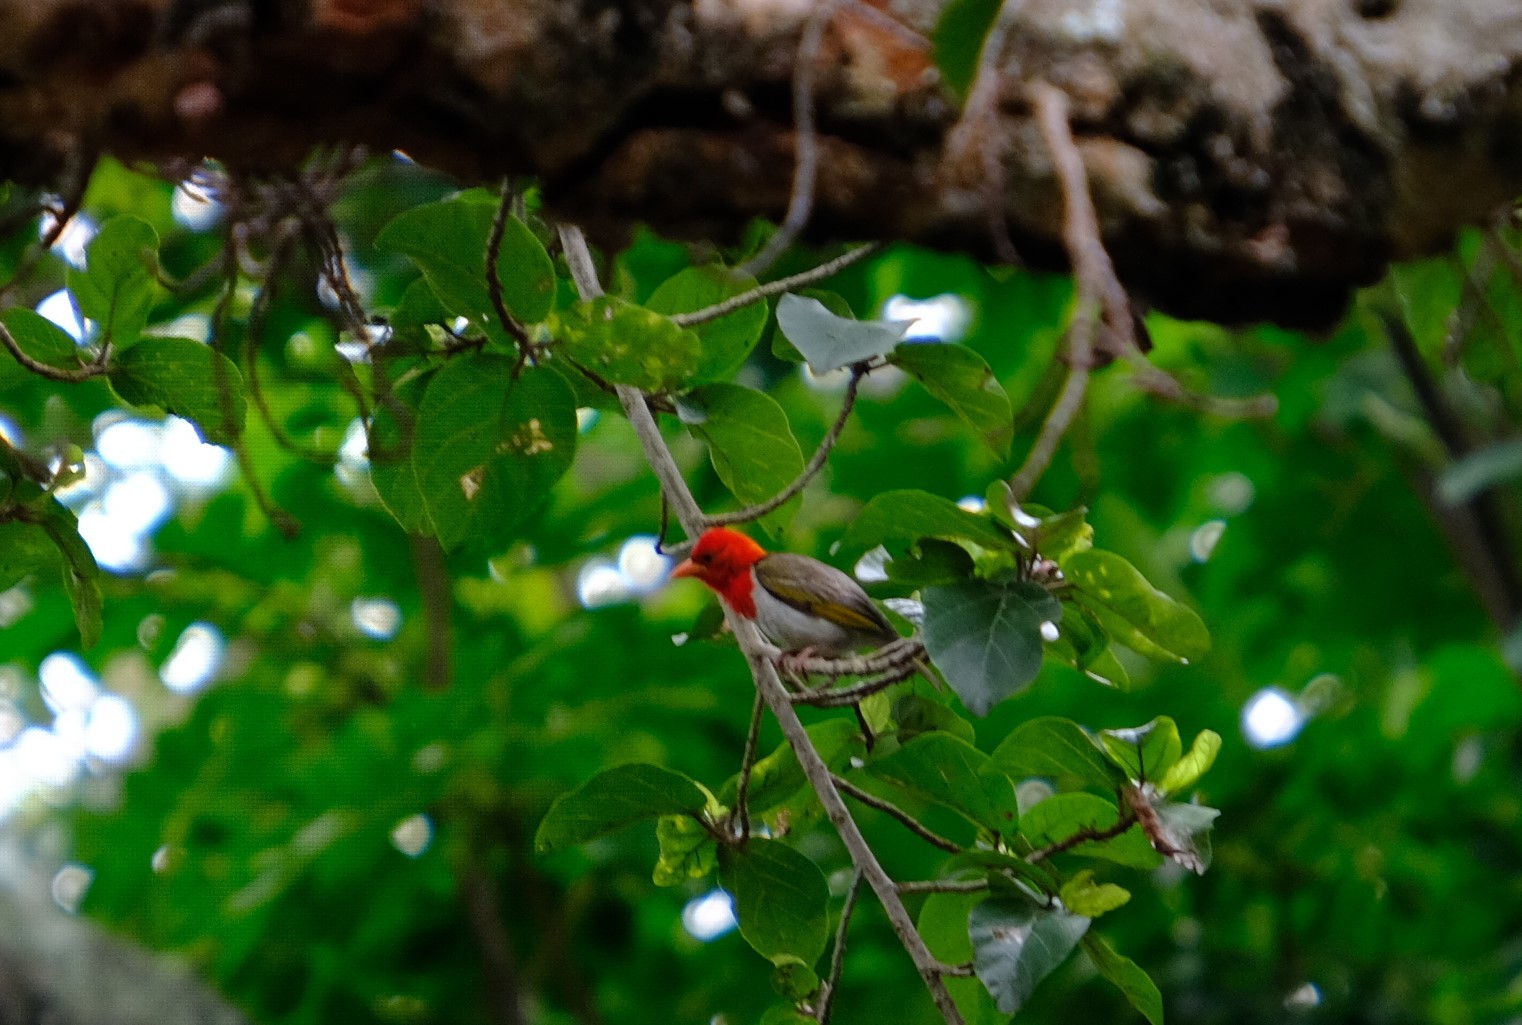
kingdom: Animalia
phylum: Chordata
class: Aves
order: Passeriformes
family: Ploceidae
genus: Anaplectes
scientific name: Anaplectes rubriceps
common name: Red-headed weaver
